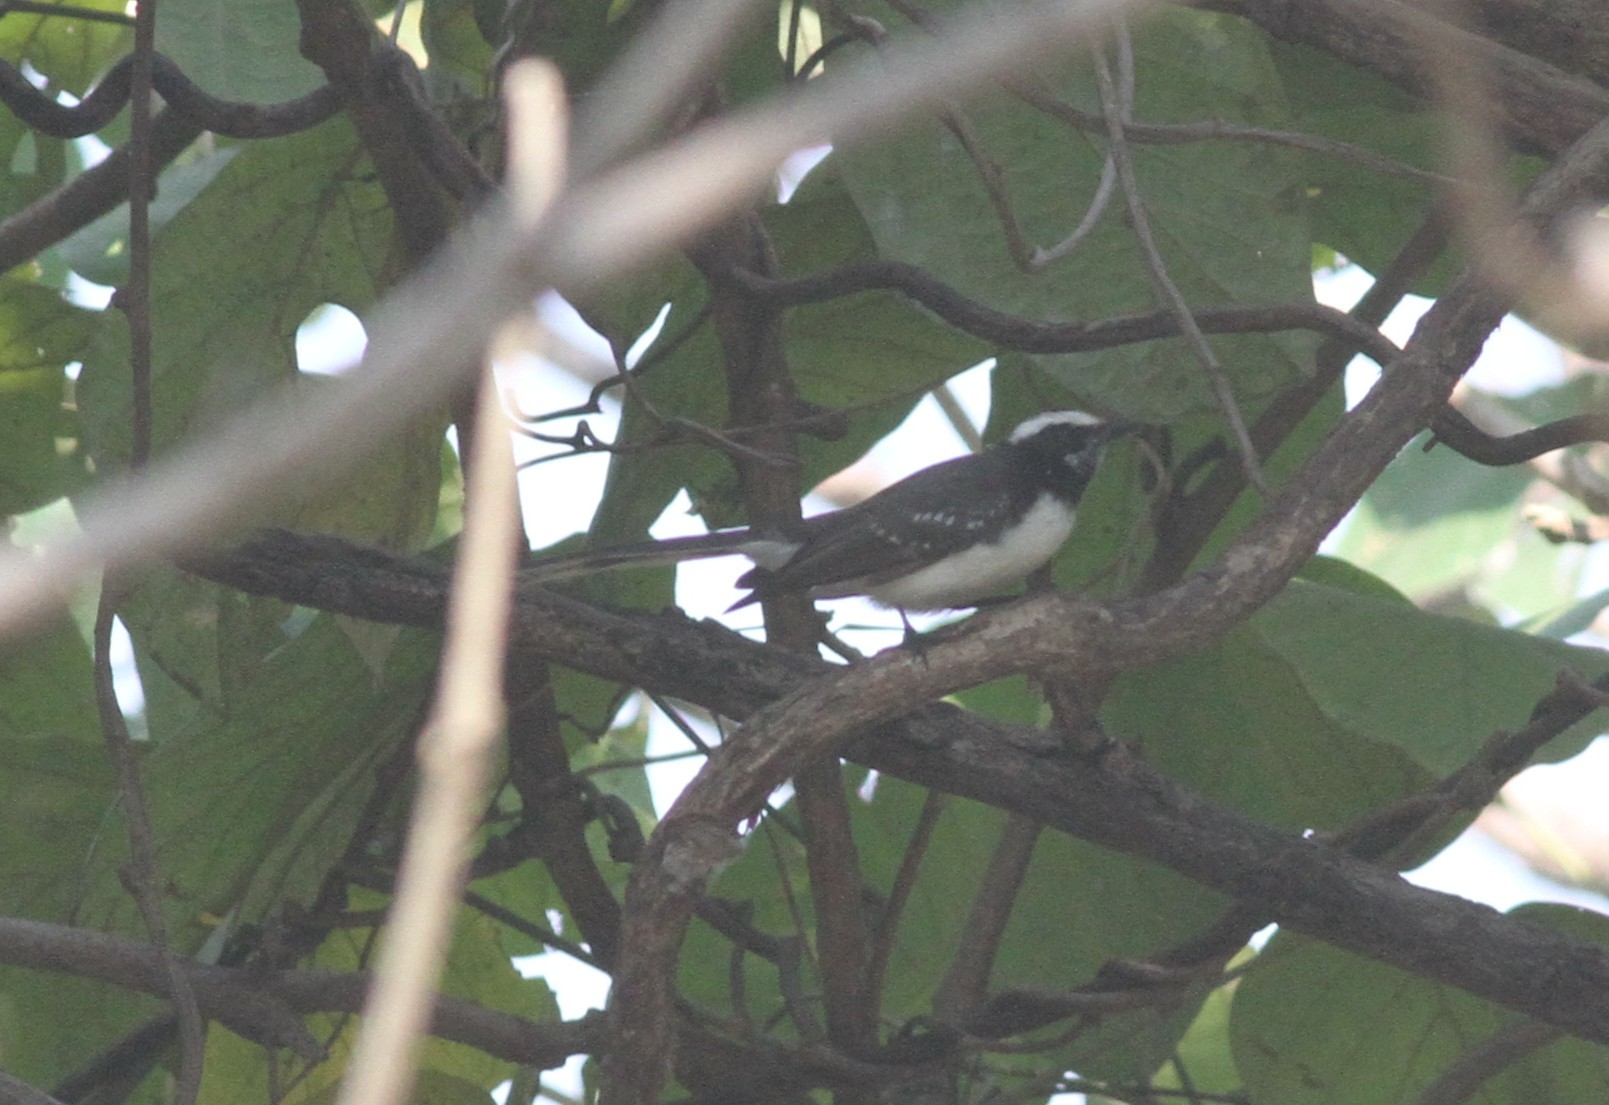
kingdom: Animalia
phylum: Chordata
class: Aves
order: Passeriformes
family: Rhipiduridae
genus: Rhipidura
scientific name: Rhipidura aureola
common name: White-browed fantail
